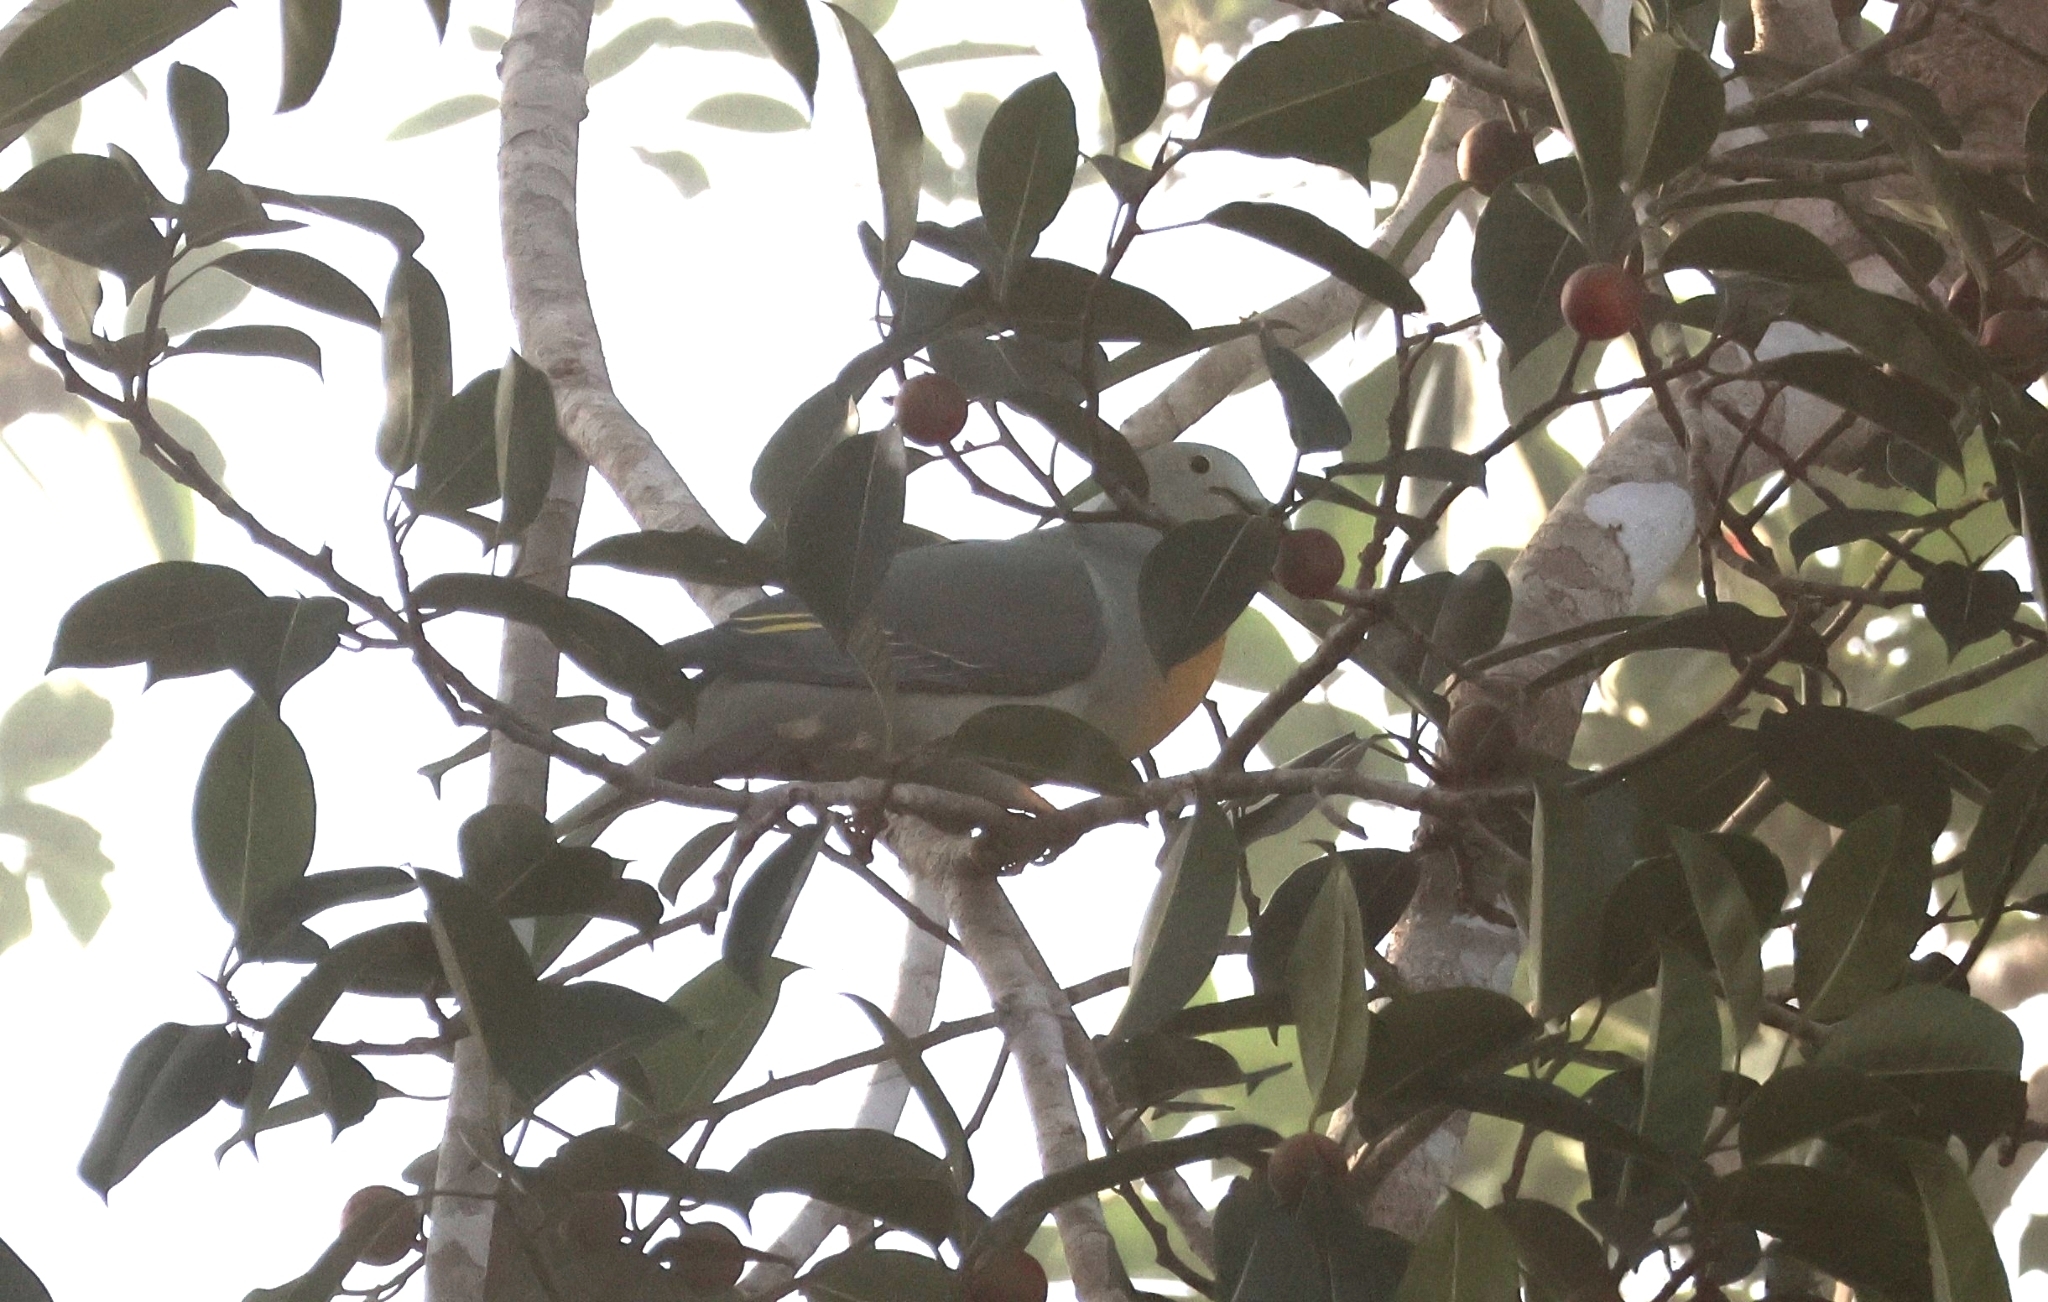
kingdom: Animalia
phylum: Chordata
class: Aves
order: Columbiformes
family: Columbidae
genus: Treron
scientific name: Treron capellei
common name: Large green pigeon
